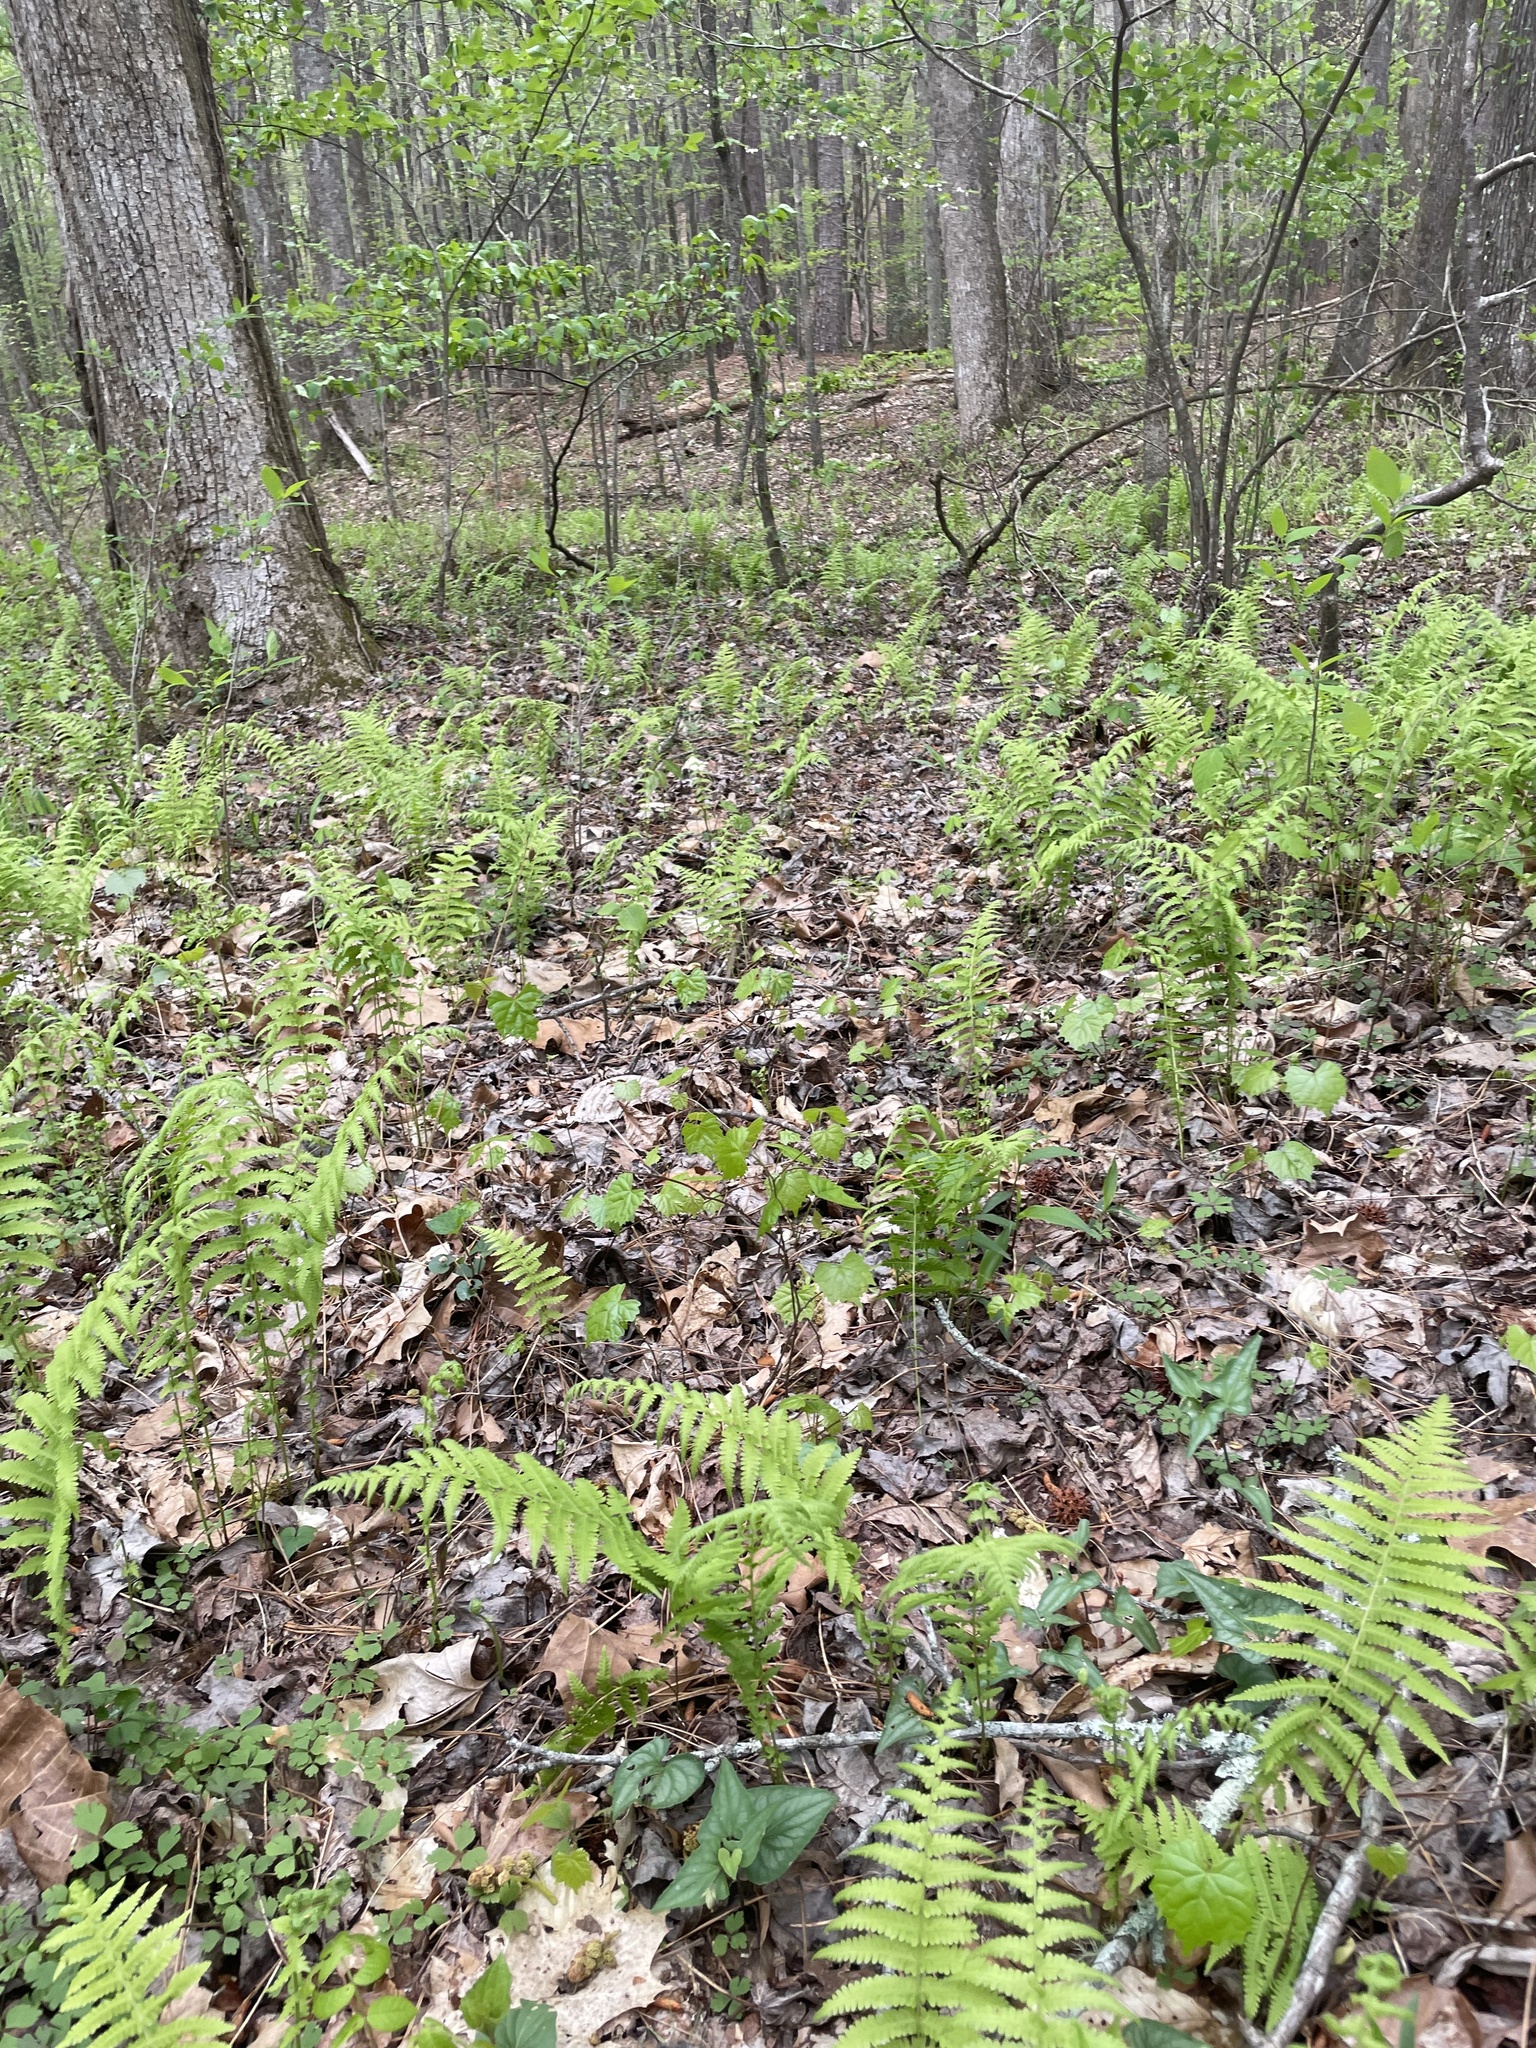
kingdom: Plantae
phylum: Tracheophyta
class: Polypodiopsida
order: Polypodiales
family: Thelypteridaceae
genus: Amauropelta
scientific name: Amauropelta noveboracensis
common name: New york fern
